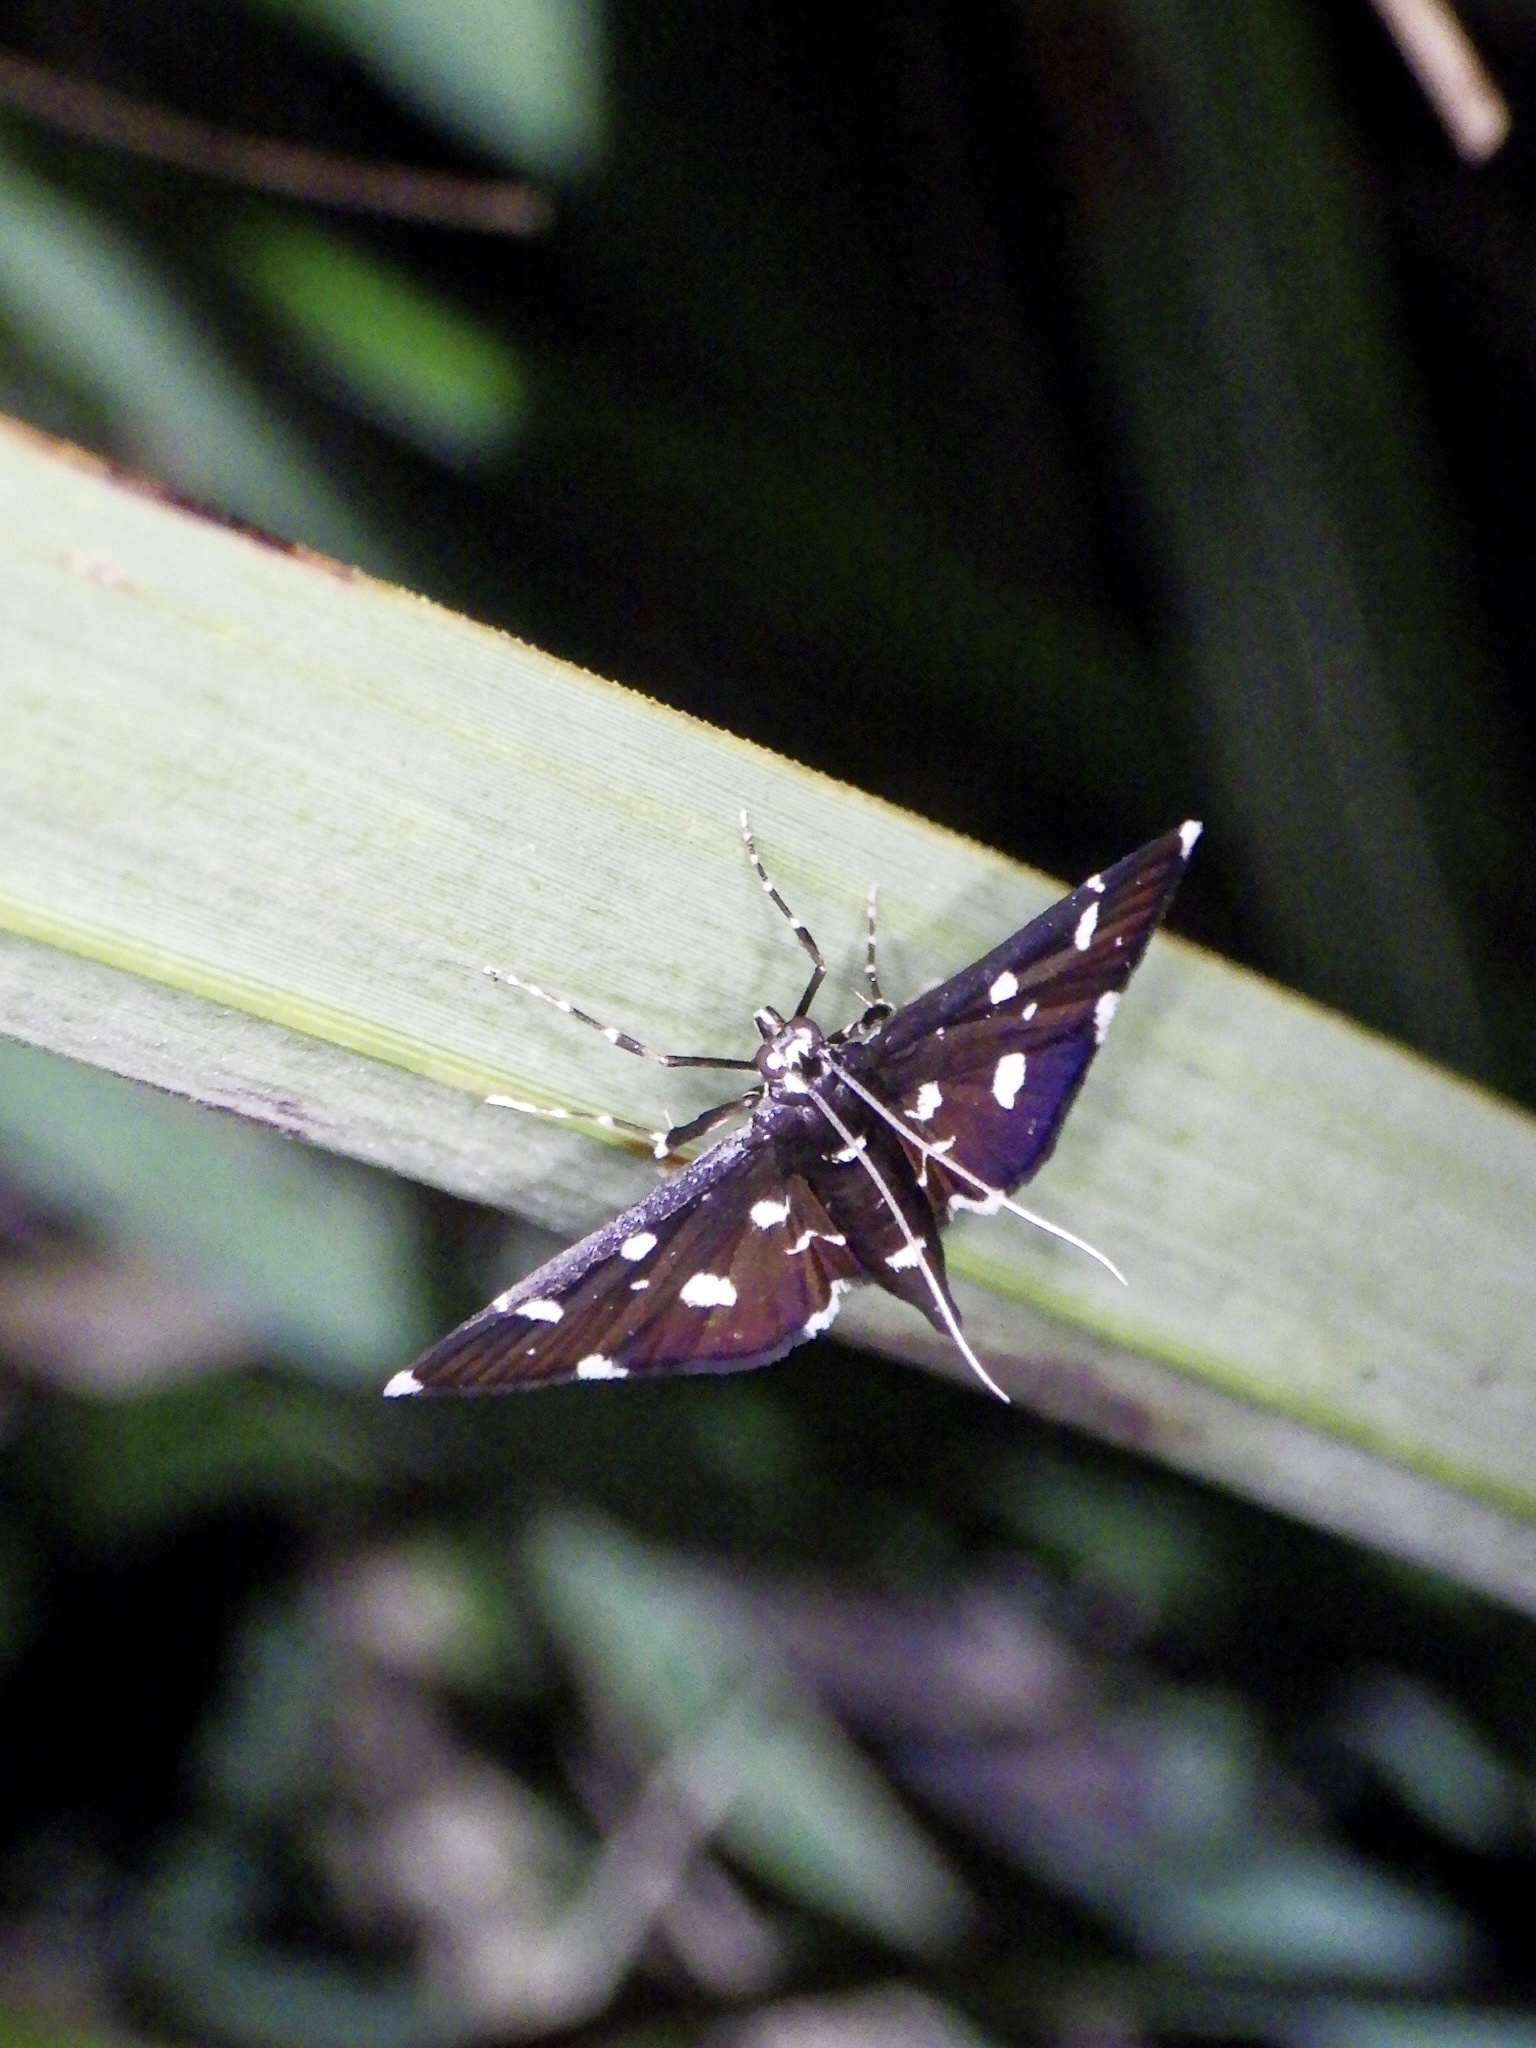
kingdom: Animalia
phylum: Arthropoda
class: Insecta
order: Lepidoptera
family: Crambidae
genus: Bocchoris
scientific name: Bocchoris inspersalis
